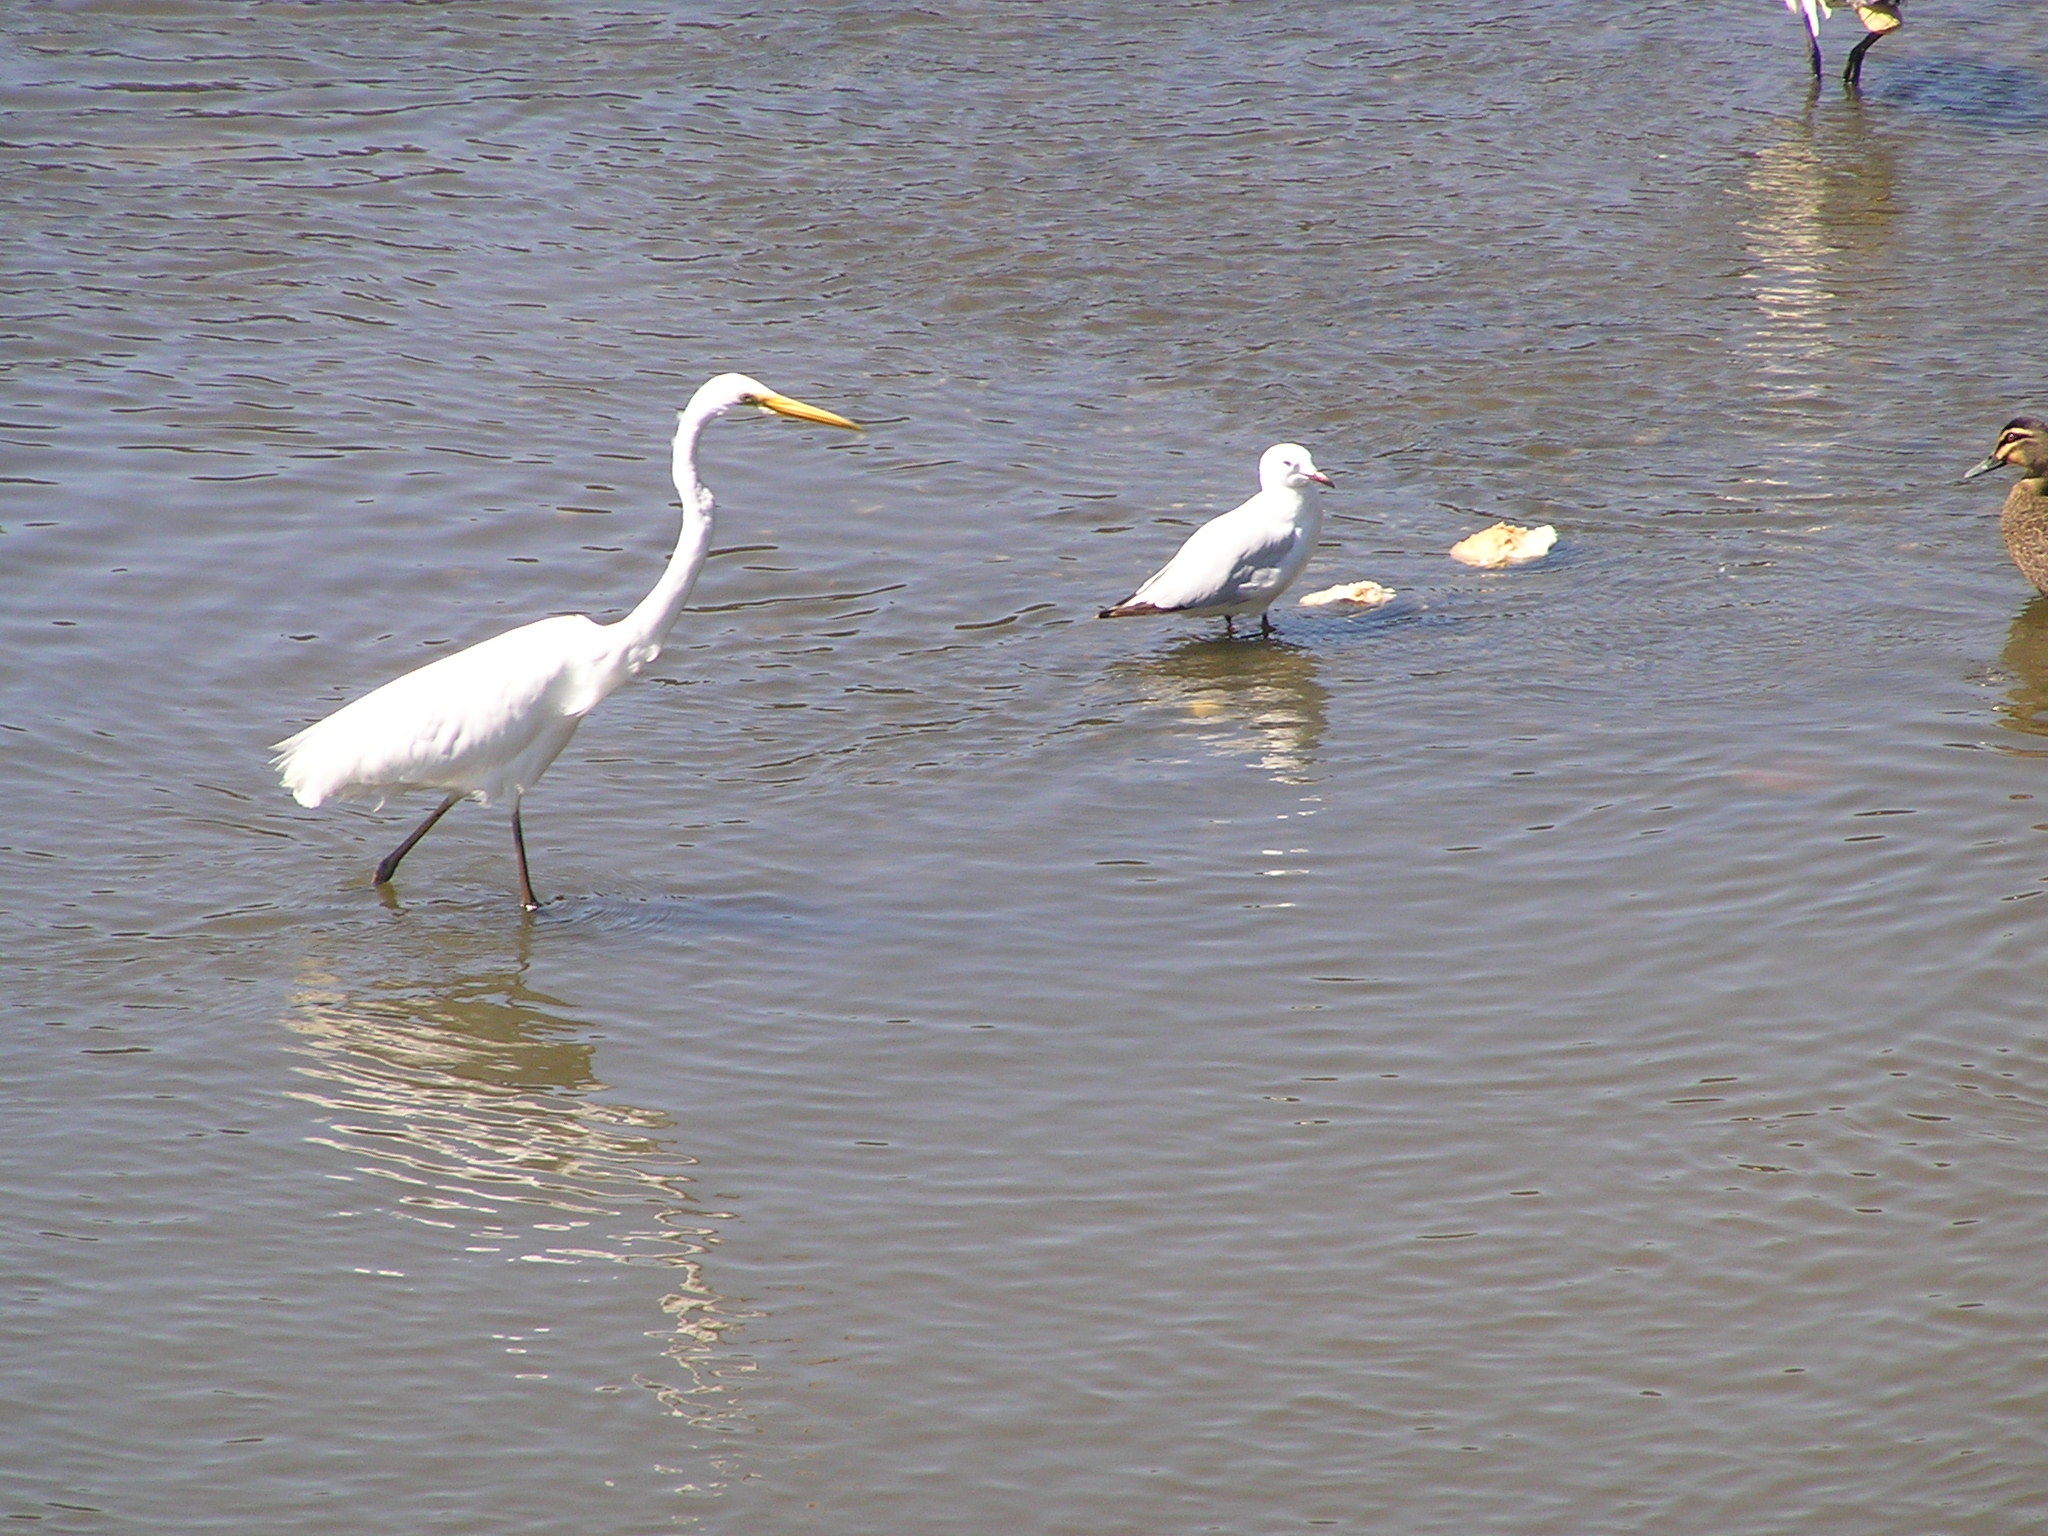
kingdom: Animalia
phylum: Chordata
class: Aves
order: Anseriformes
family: Anatidae
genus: Anas
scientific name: Anas superciliosa
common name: Pacific black duck
